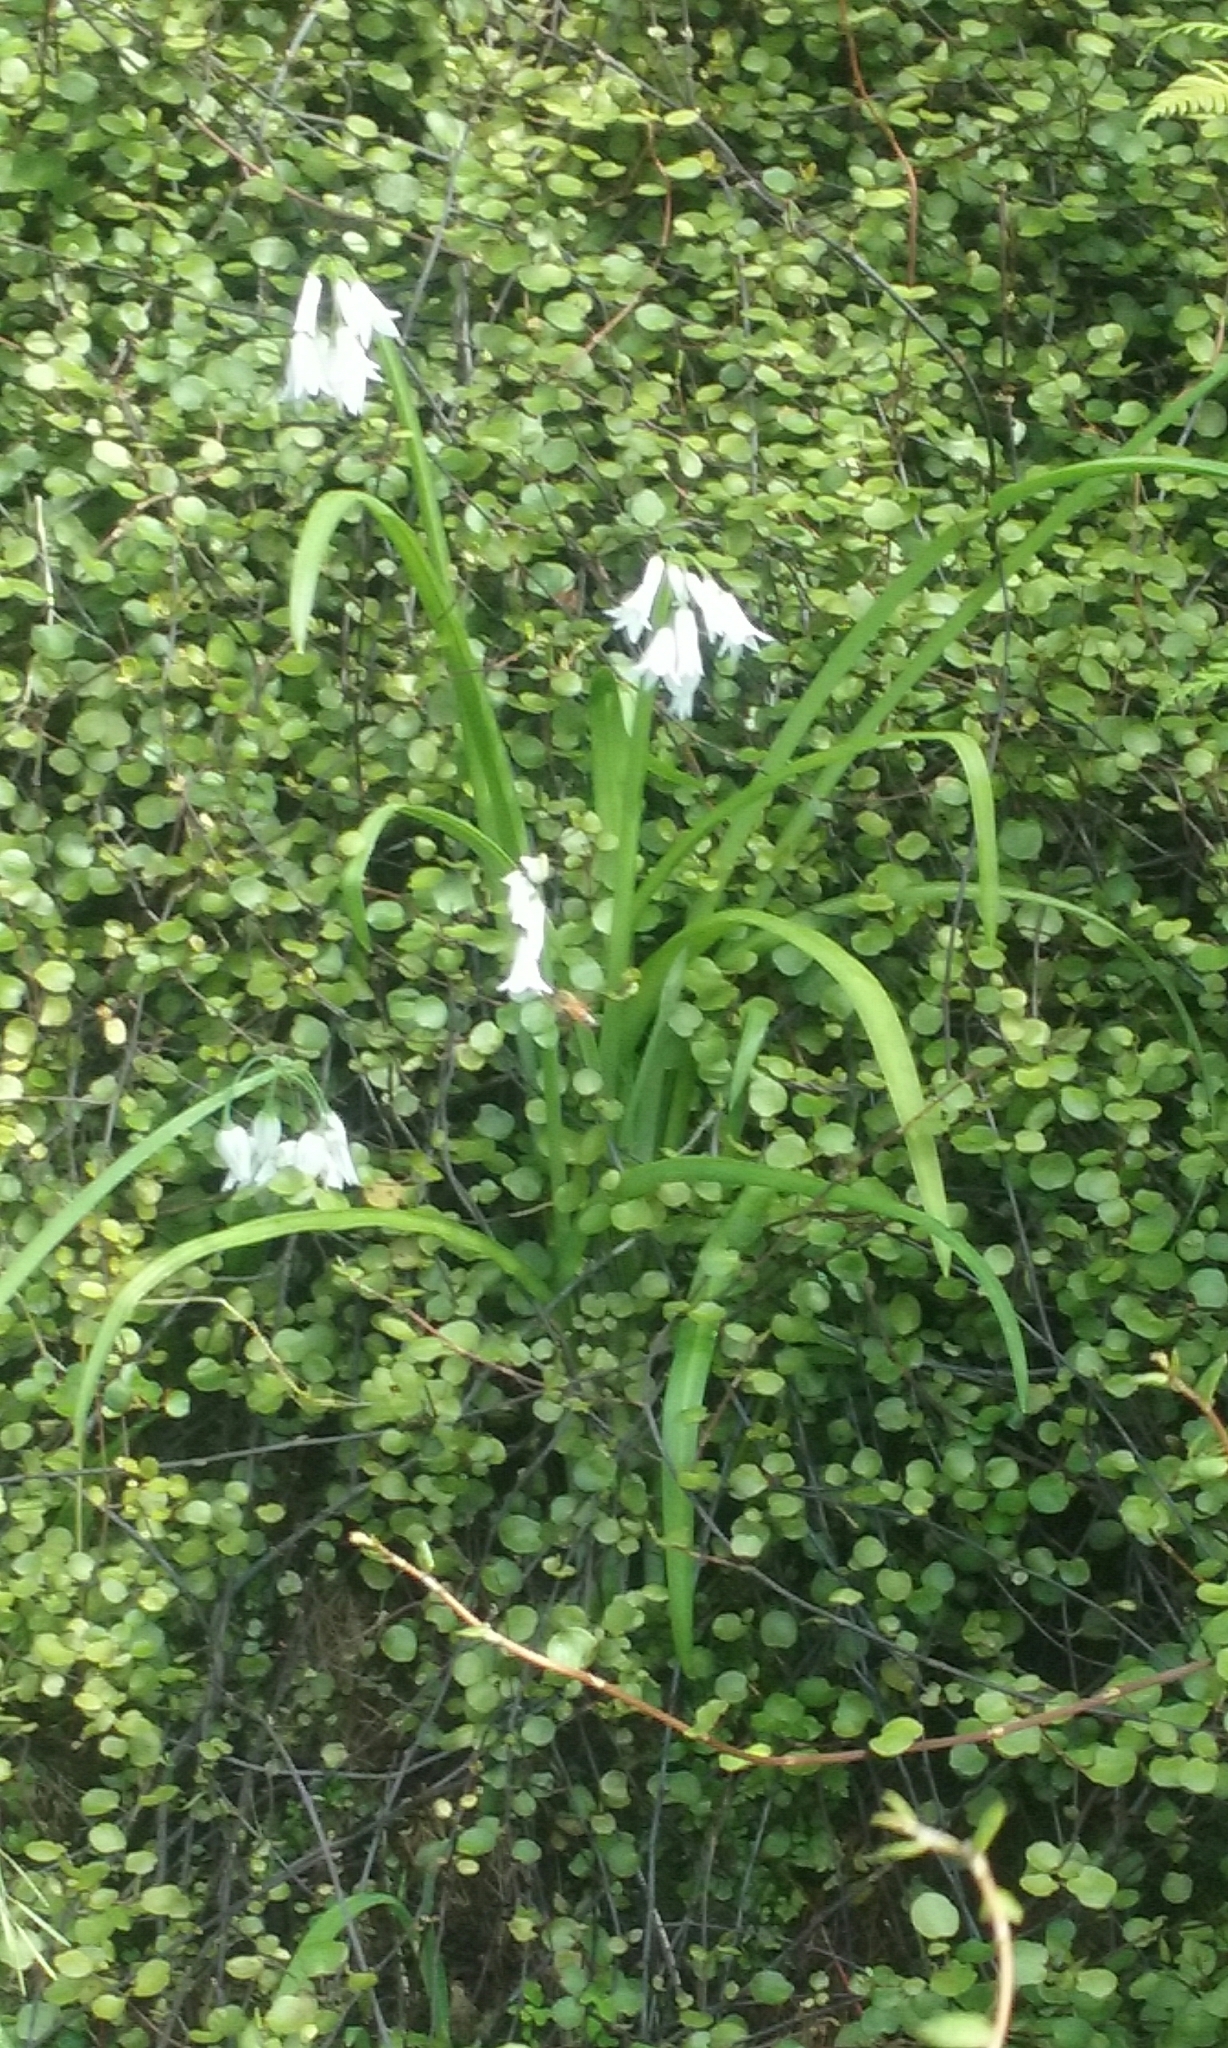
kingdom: Plantae
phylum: Tracheophyta
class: Liliopsida
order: Asparagales
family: Amaryllidaceae
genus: Allium
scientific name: Allium triquetrum
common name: Three-cornered garlic
